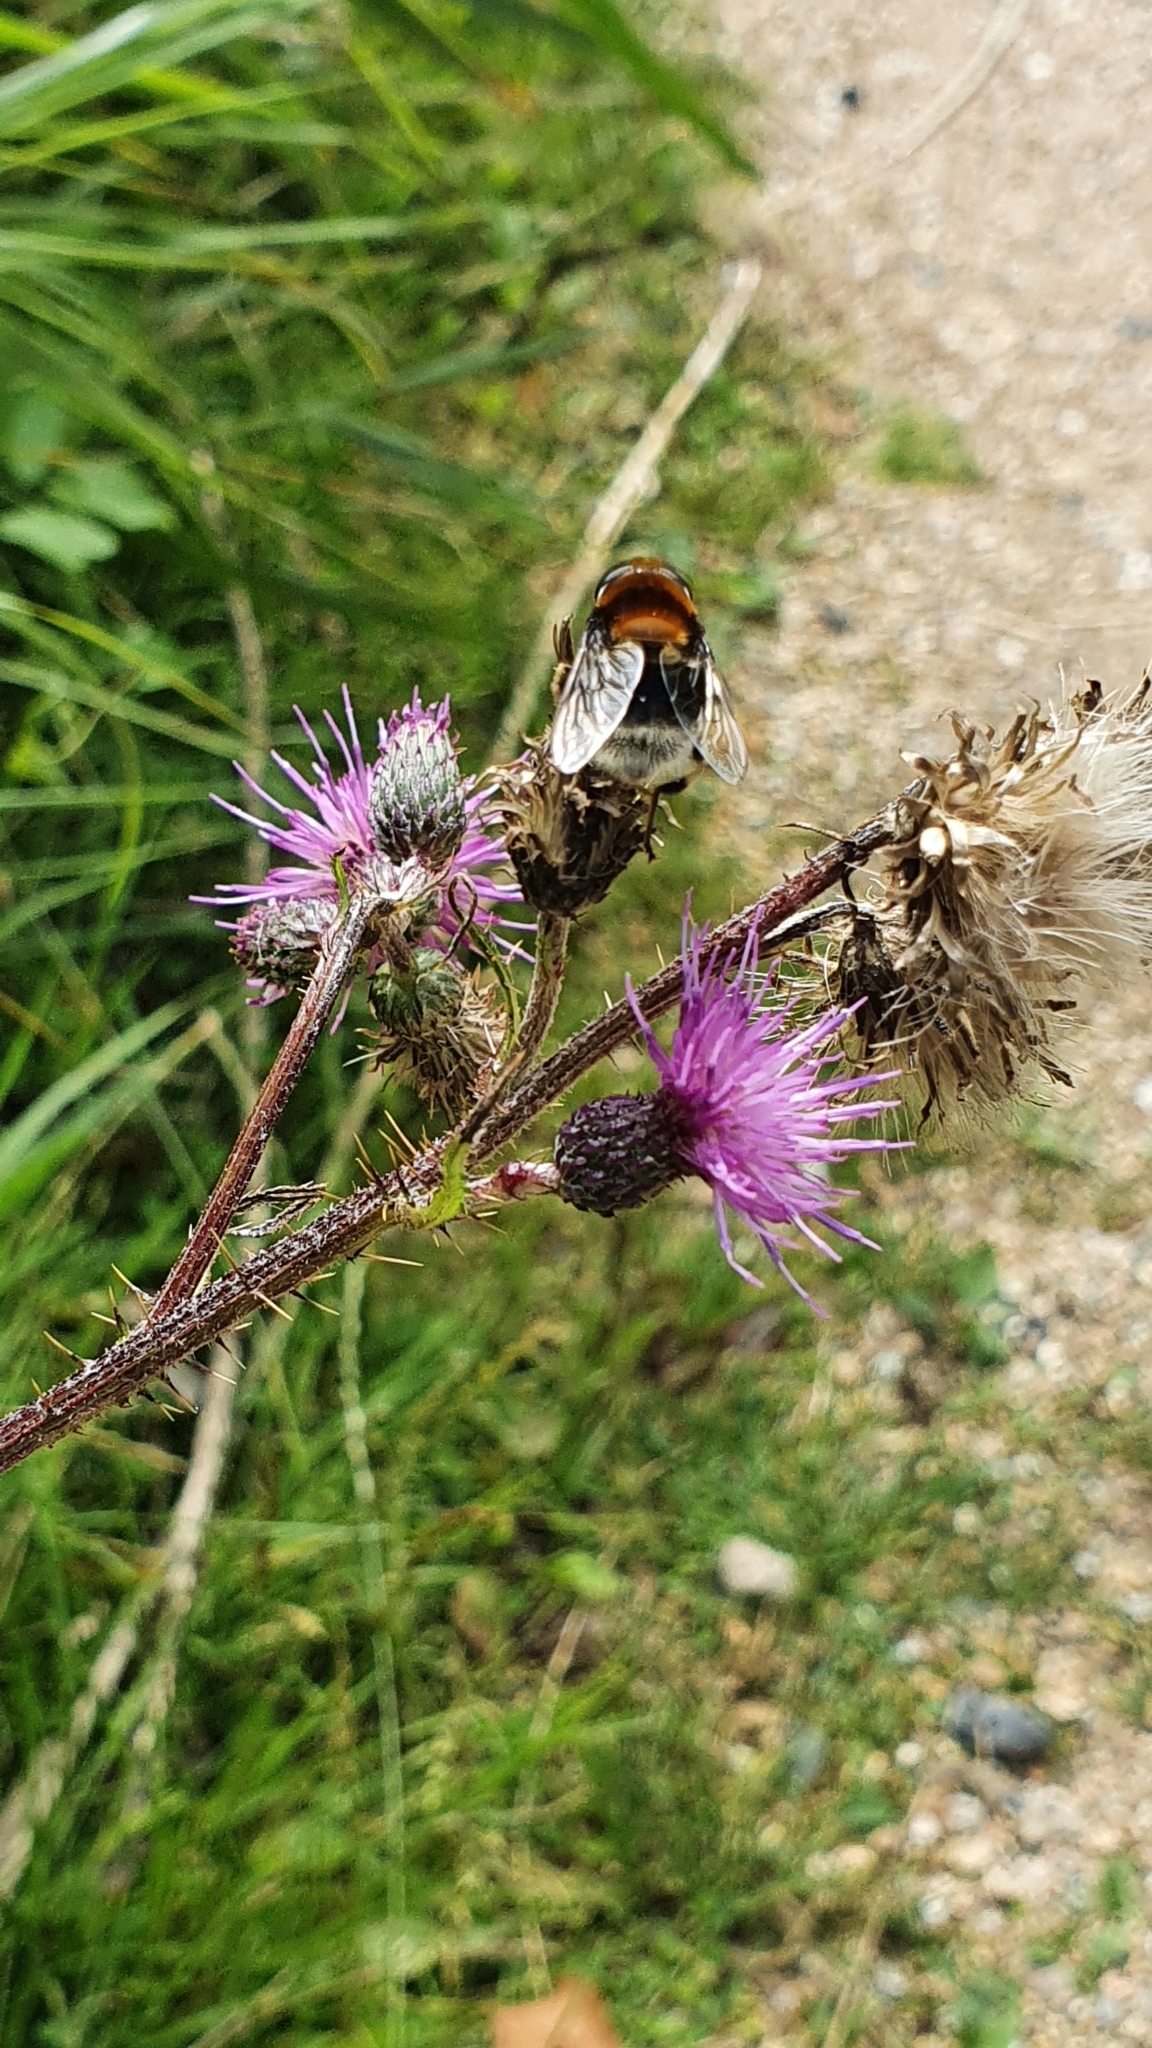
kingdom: Animalia
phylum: Arthropoda
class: Insecta
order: Diptera
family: Syrphidae
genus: Eristalis
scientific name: Eristalis intricaria
